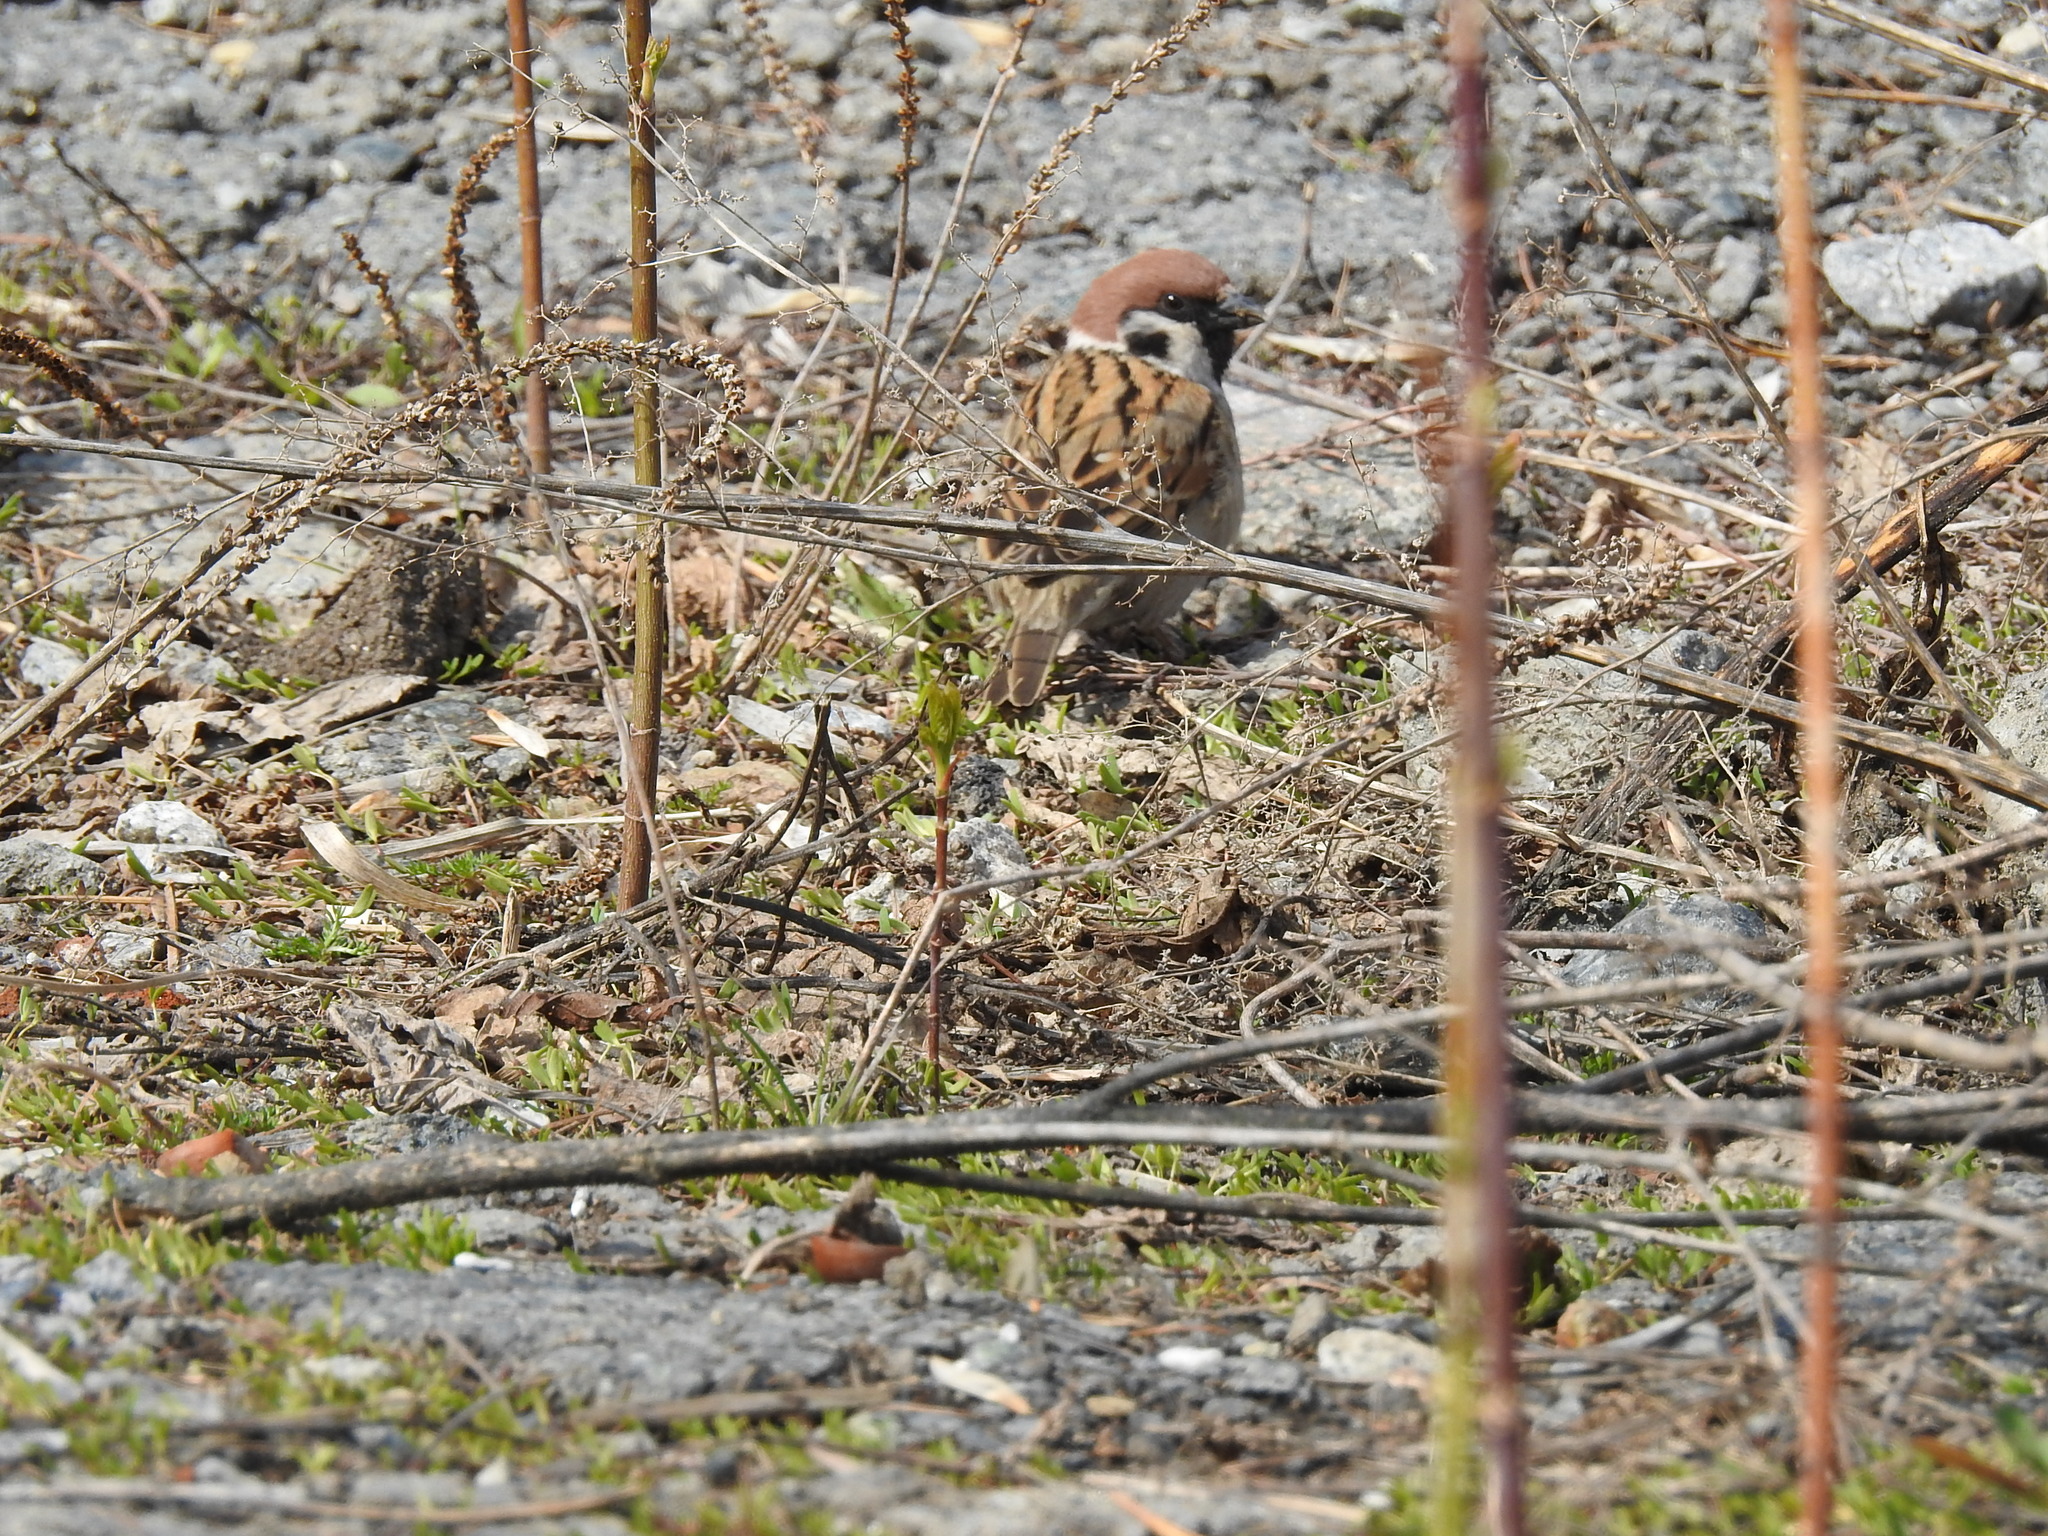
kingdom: Animalia
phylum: Chordata
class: Aves
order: Passeriformes
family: Passeridae
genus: Passer
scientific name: Passer montanus
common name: Eurasian tree sparrow
